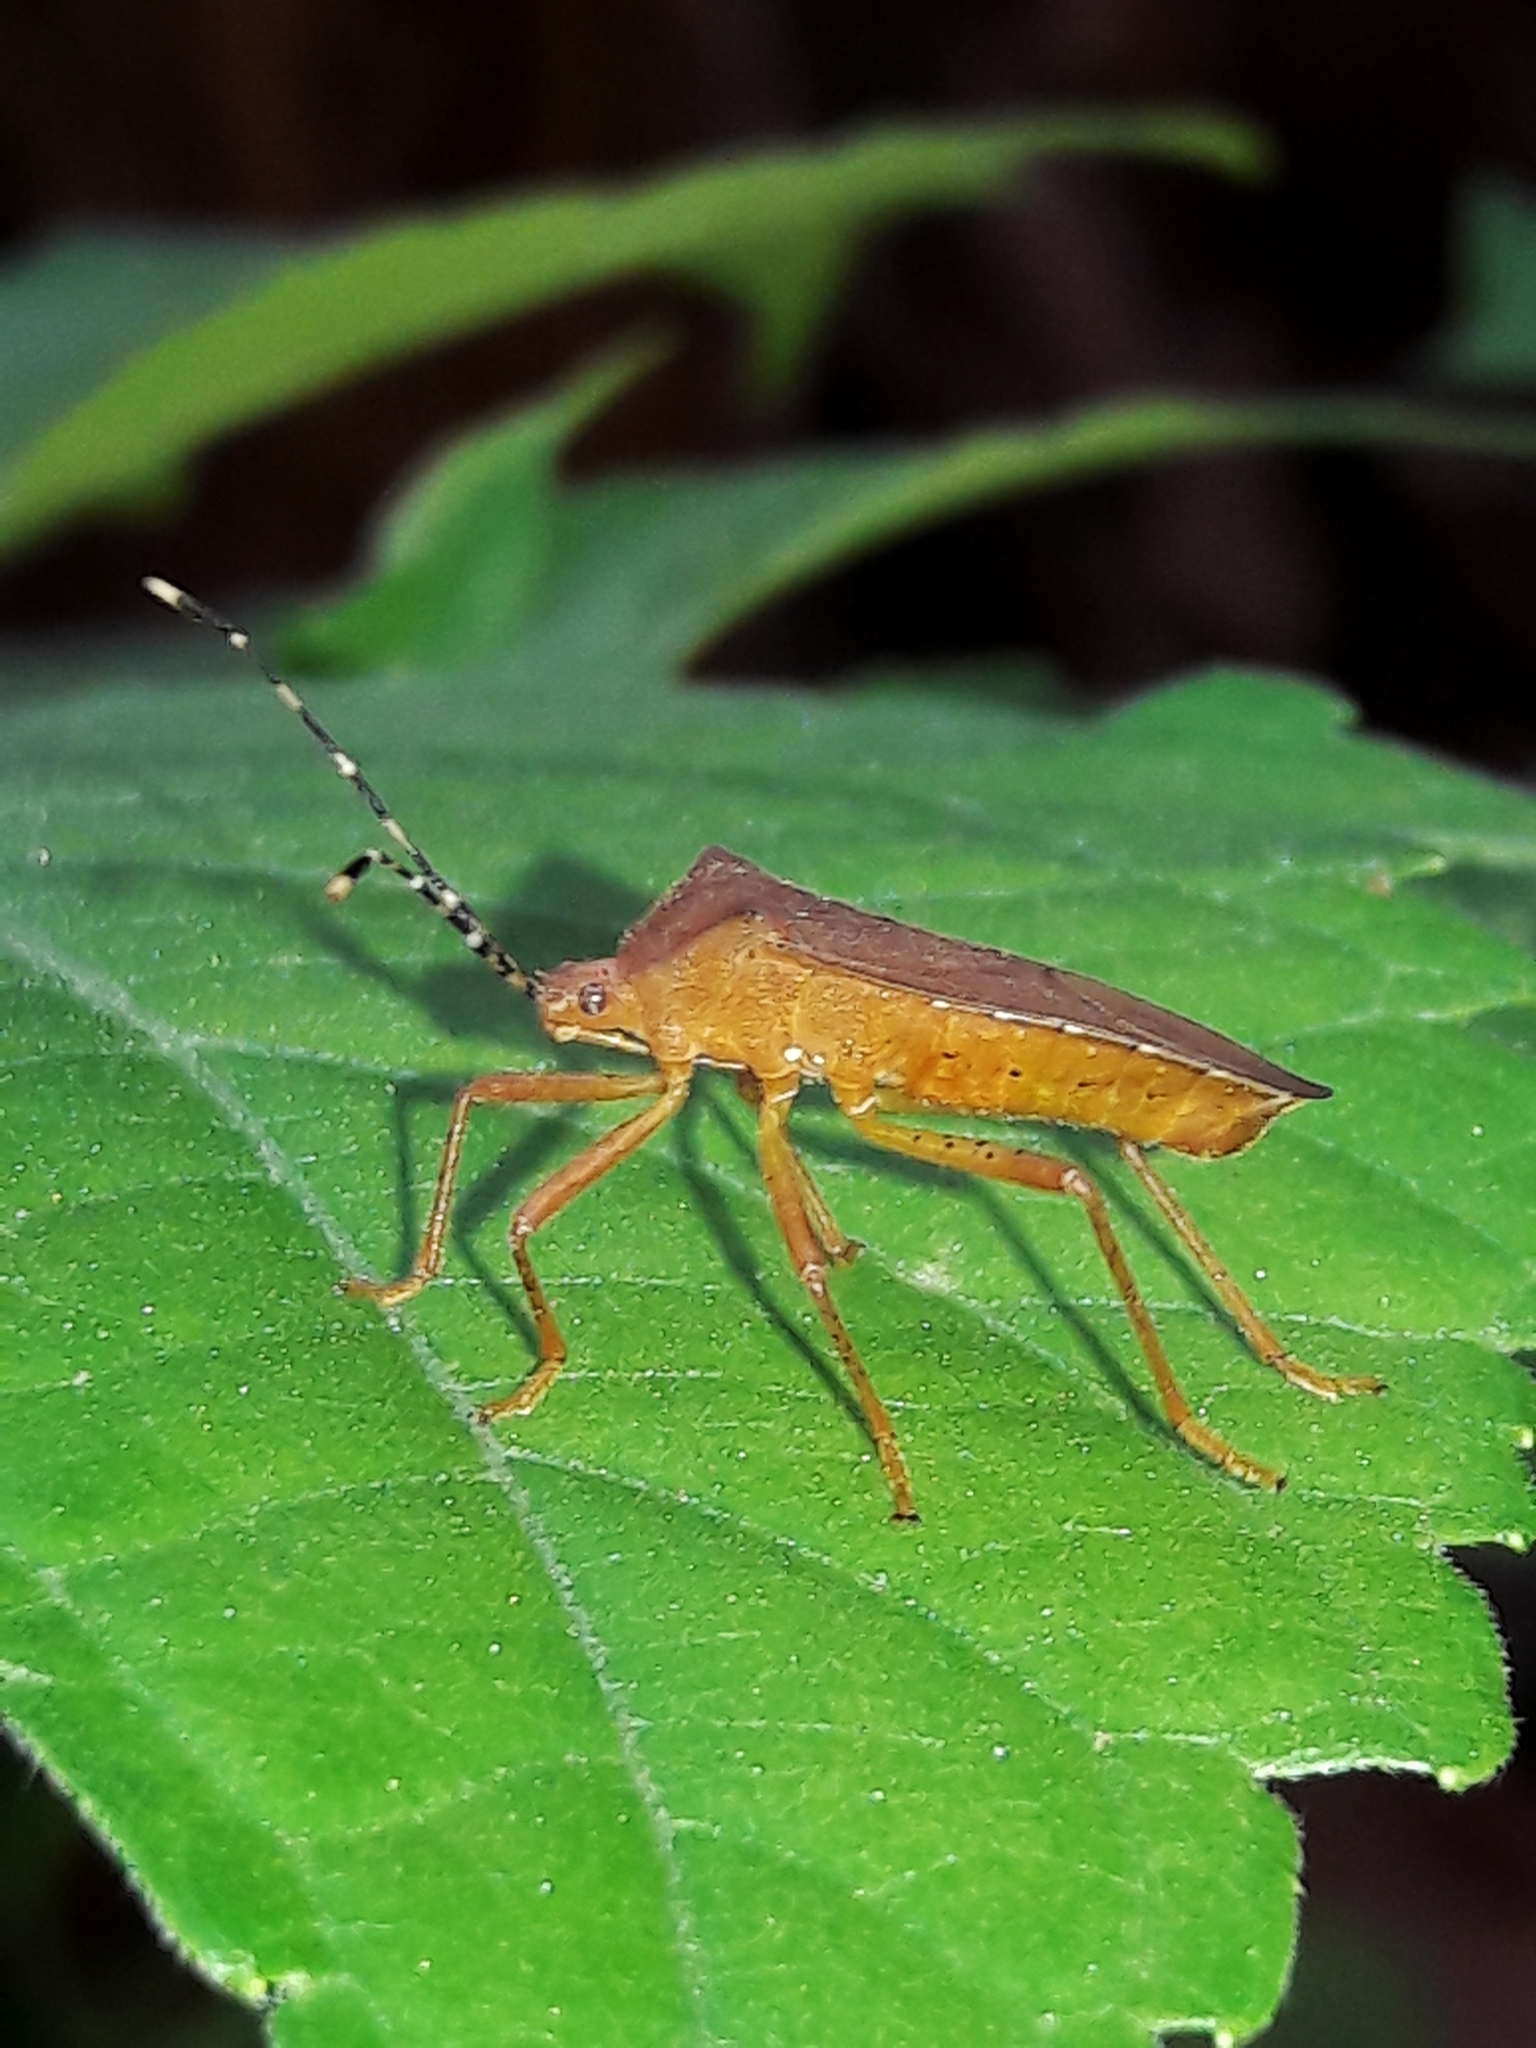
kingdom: Animalia
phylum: Arthropoda
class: Insecta
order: Hemiptera
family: Coreidae
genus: Anasa
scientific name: Anasa bellator
